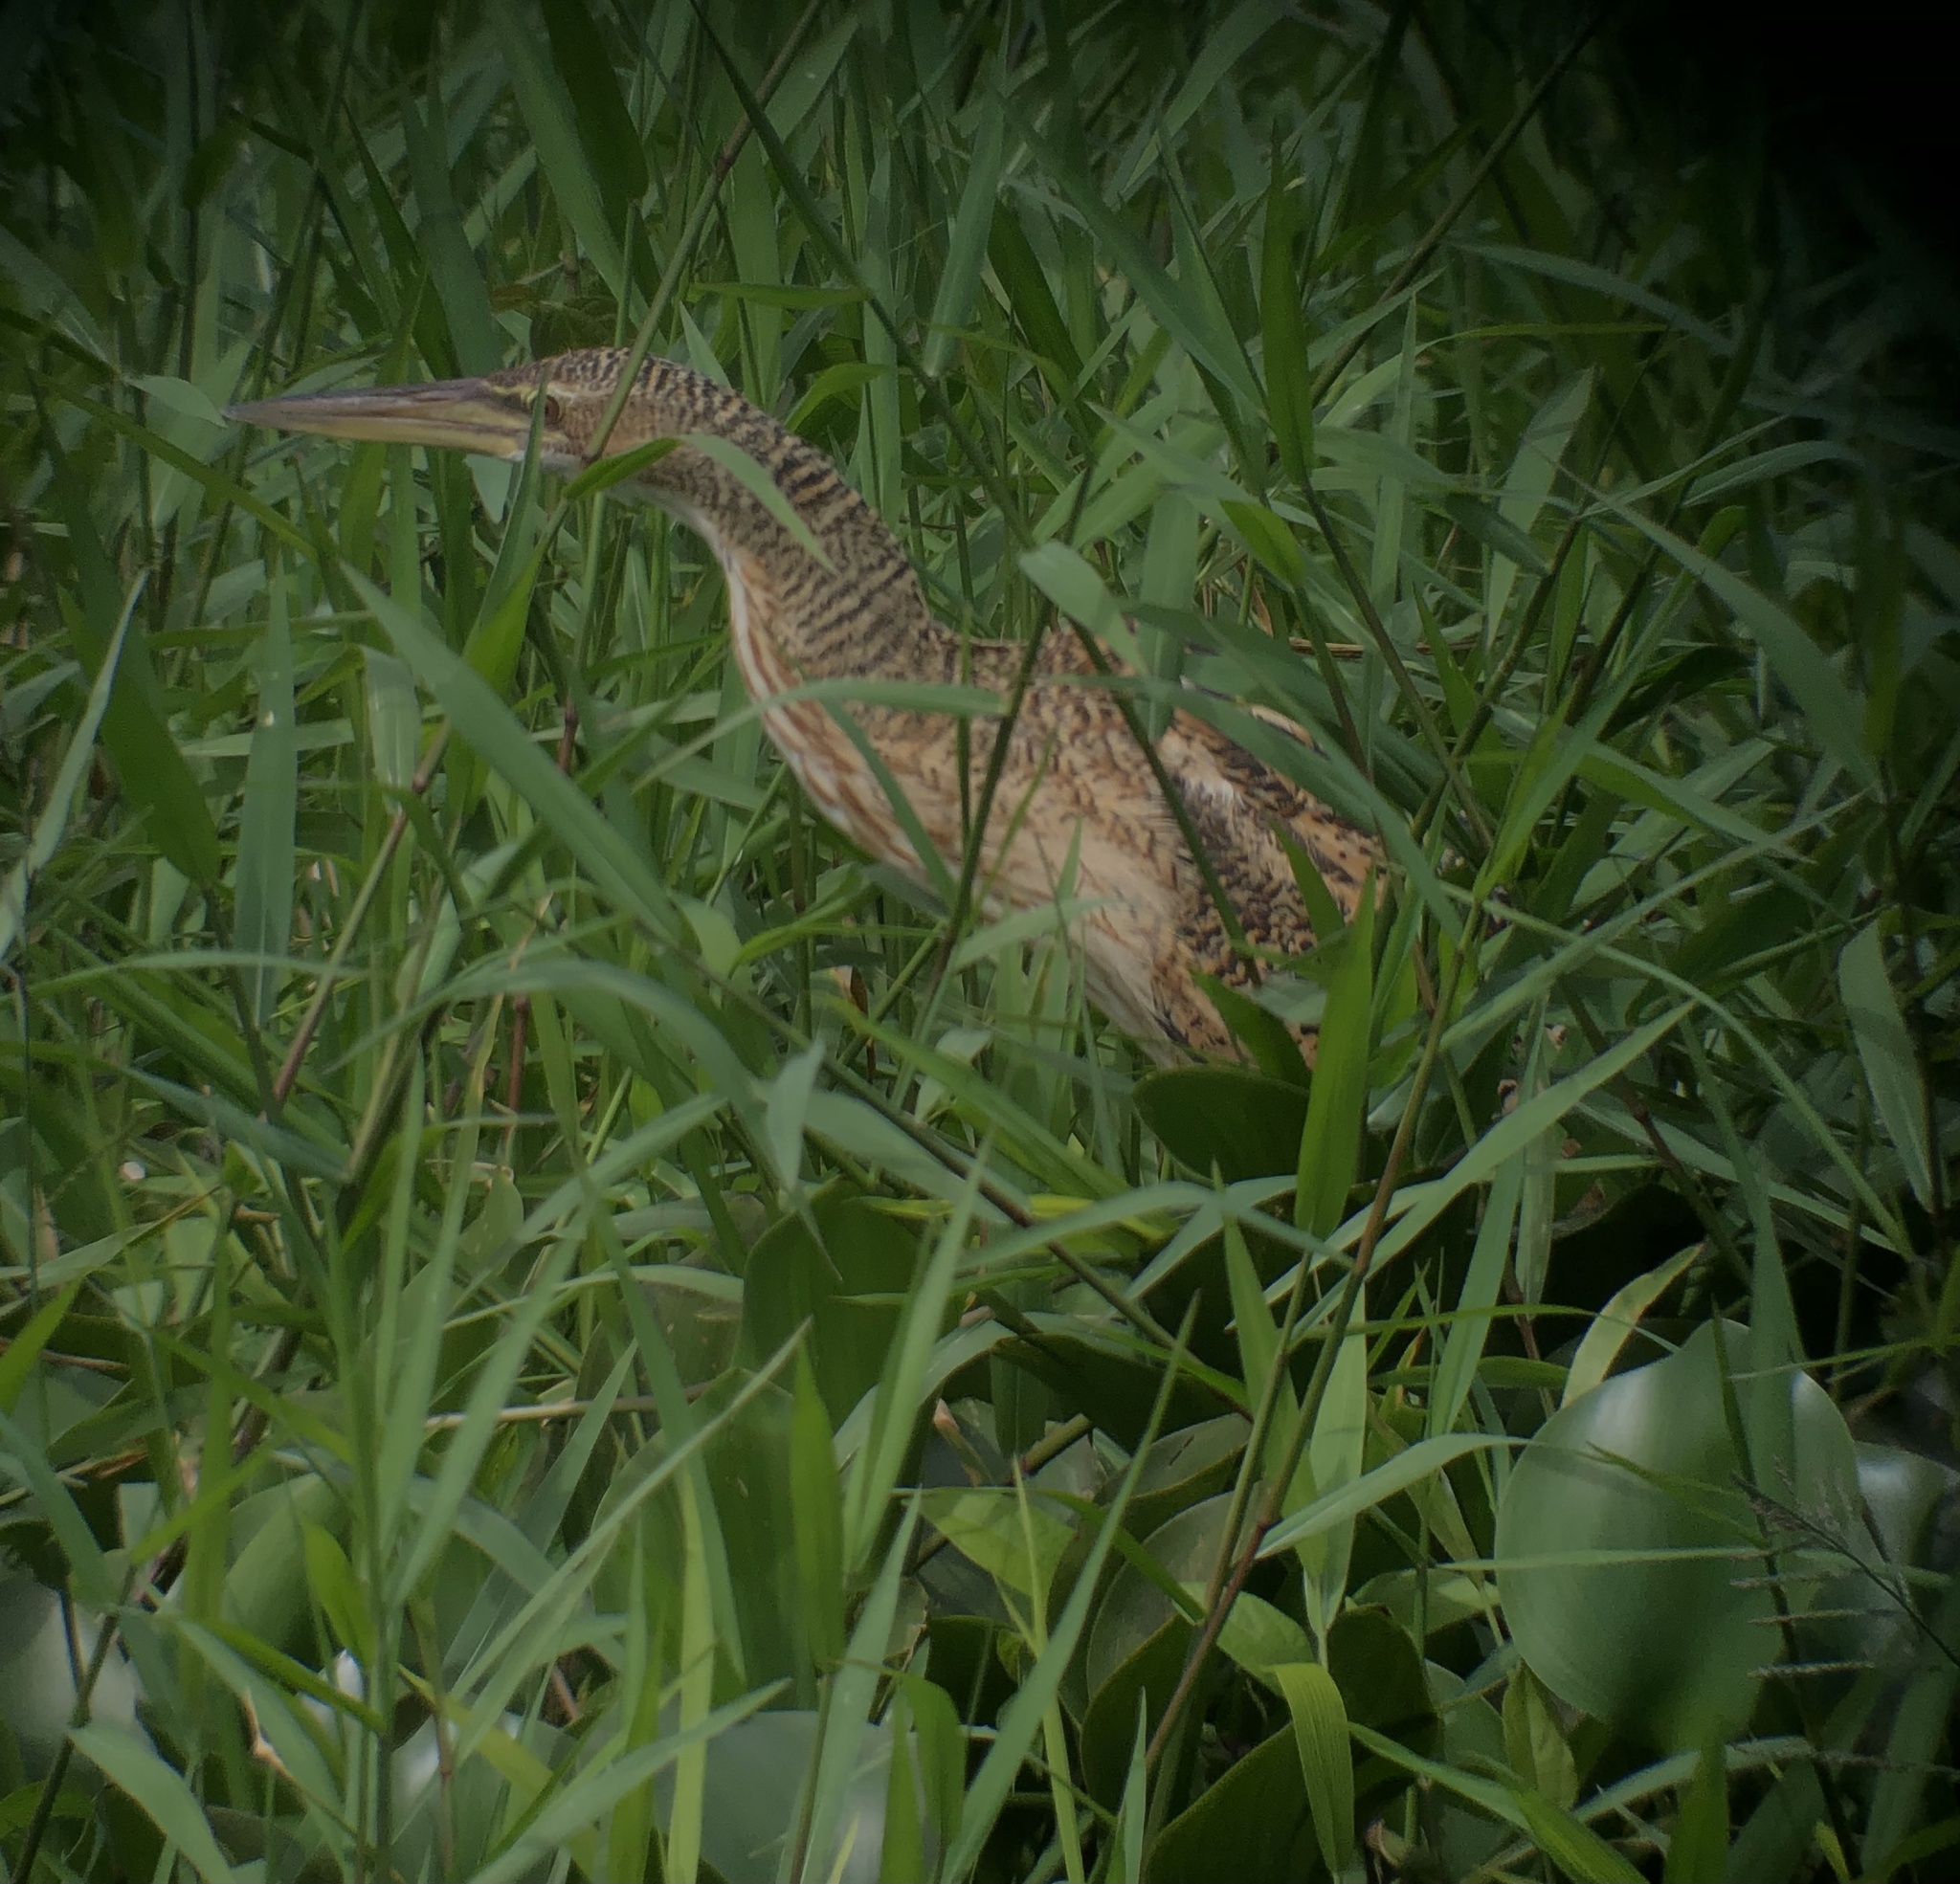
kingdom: Animalia
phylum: Chordata
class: Aves
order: Pelecaniformes
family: Ardeidae
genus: Botaurus
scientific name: Botaurus pinnatus
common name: Pinnated bittern
